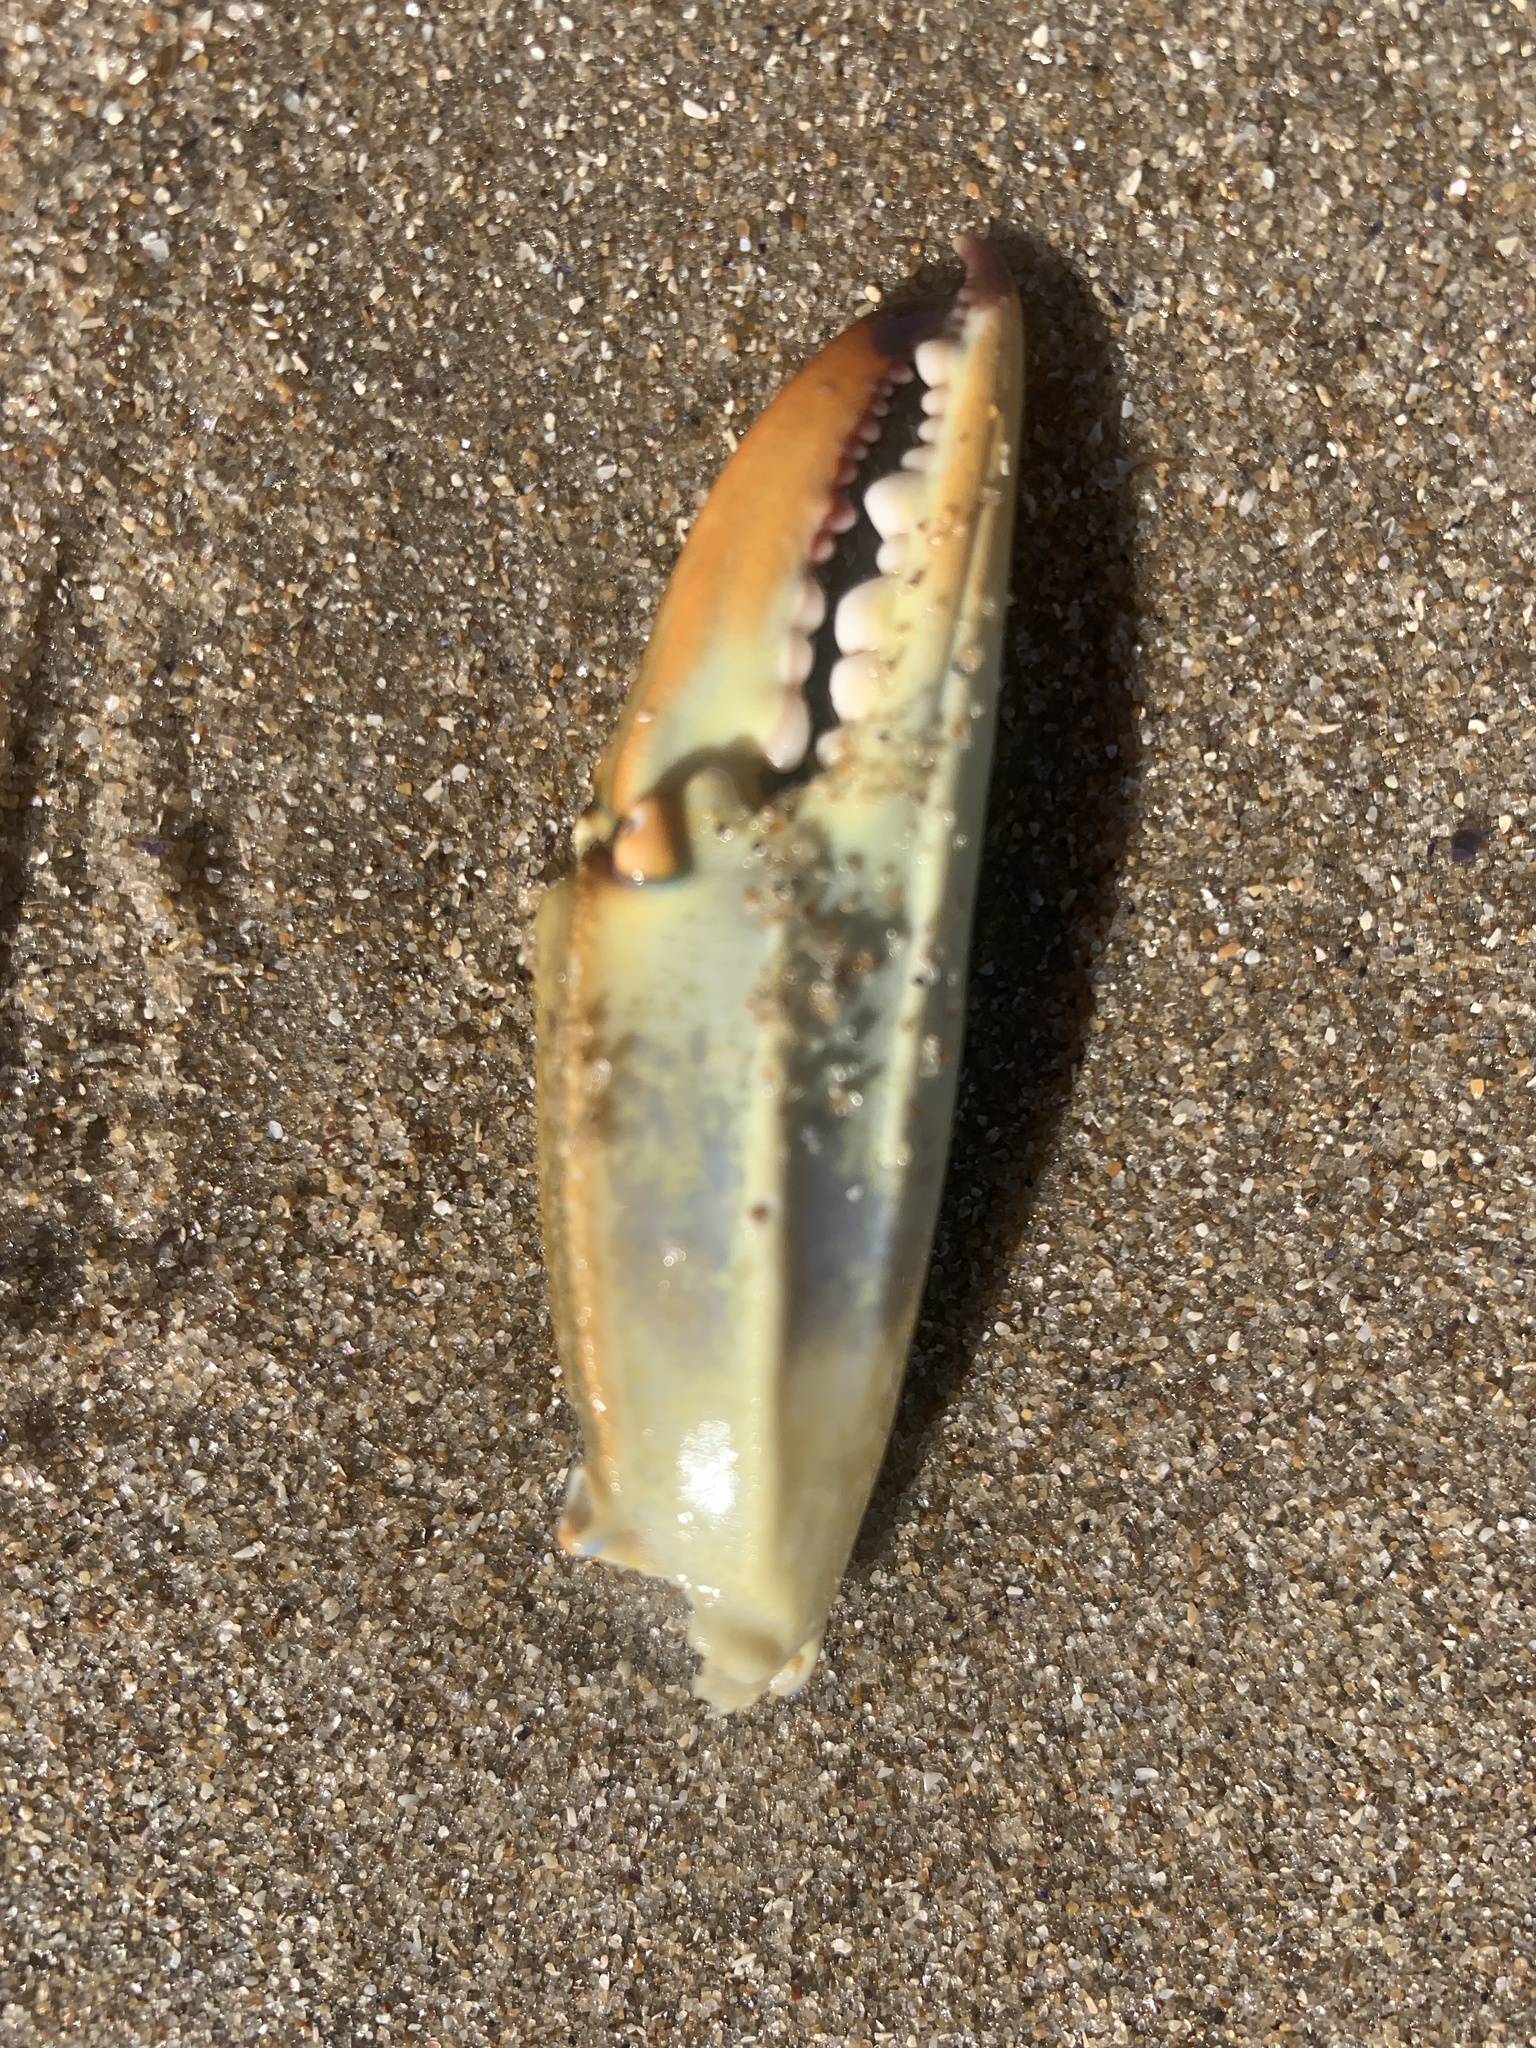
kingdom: Animalia
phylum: Arthropoda
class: Malacostraca
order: Decapoda
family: Portunidae
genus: Callinectes
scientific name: Callinectes sapidus
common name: Blue crab
